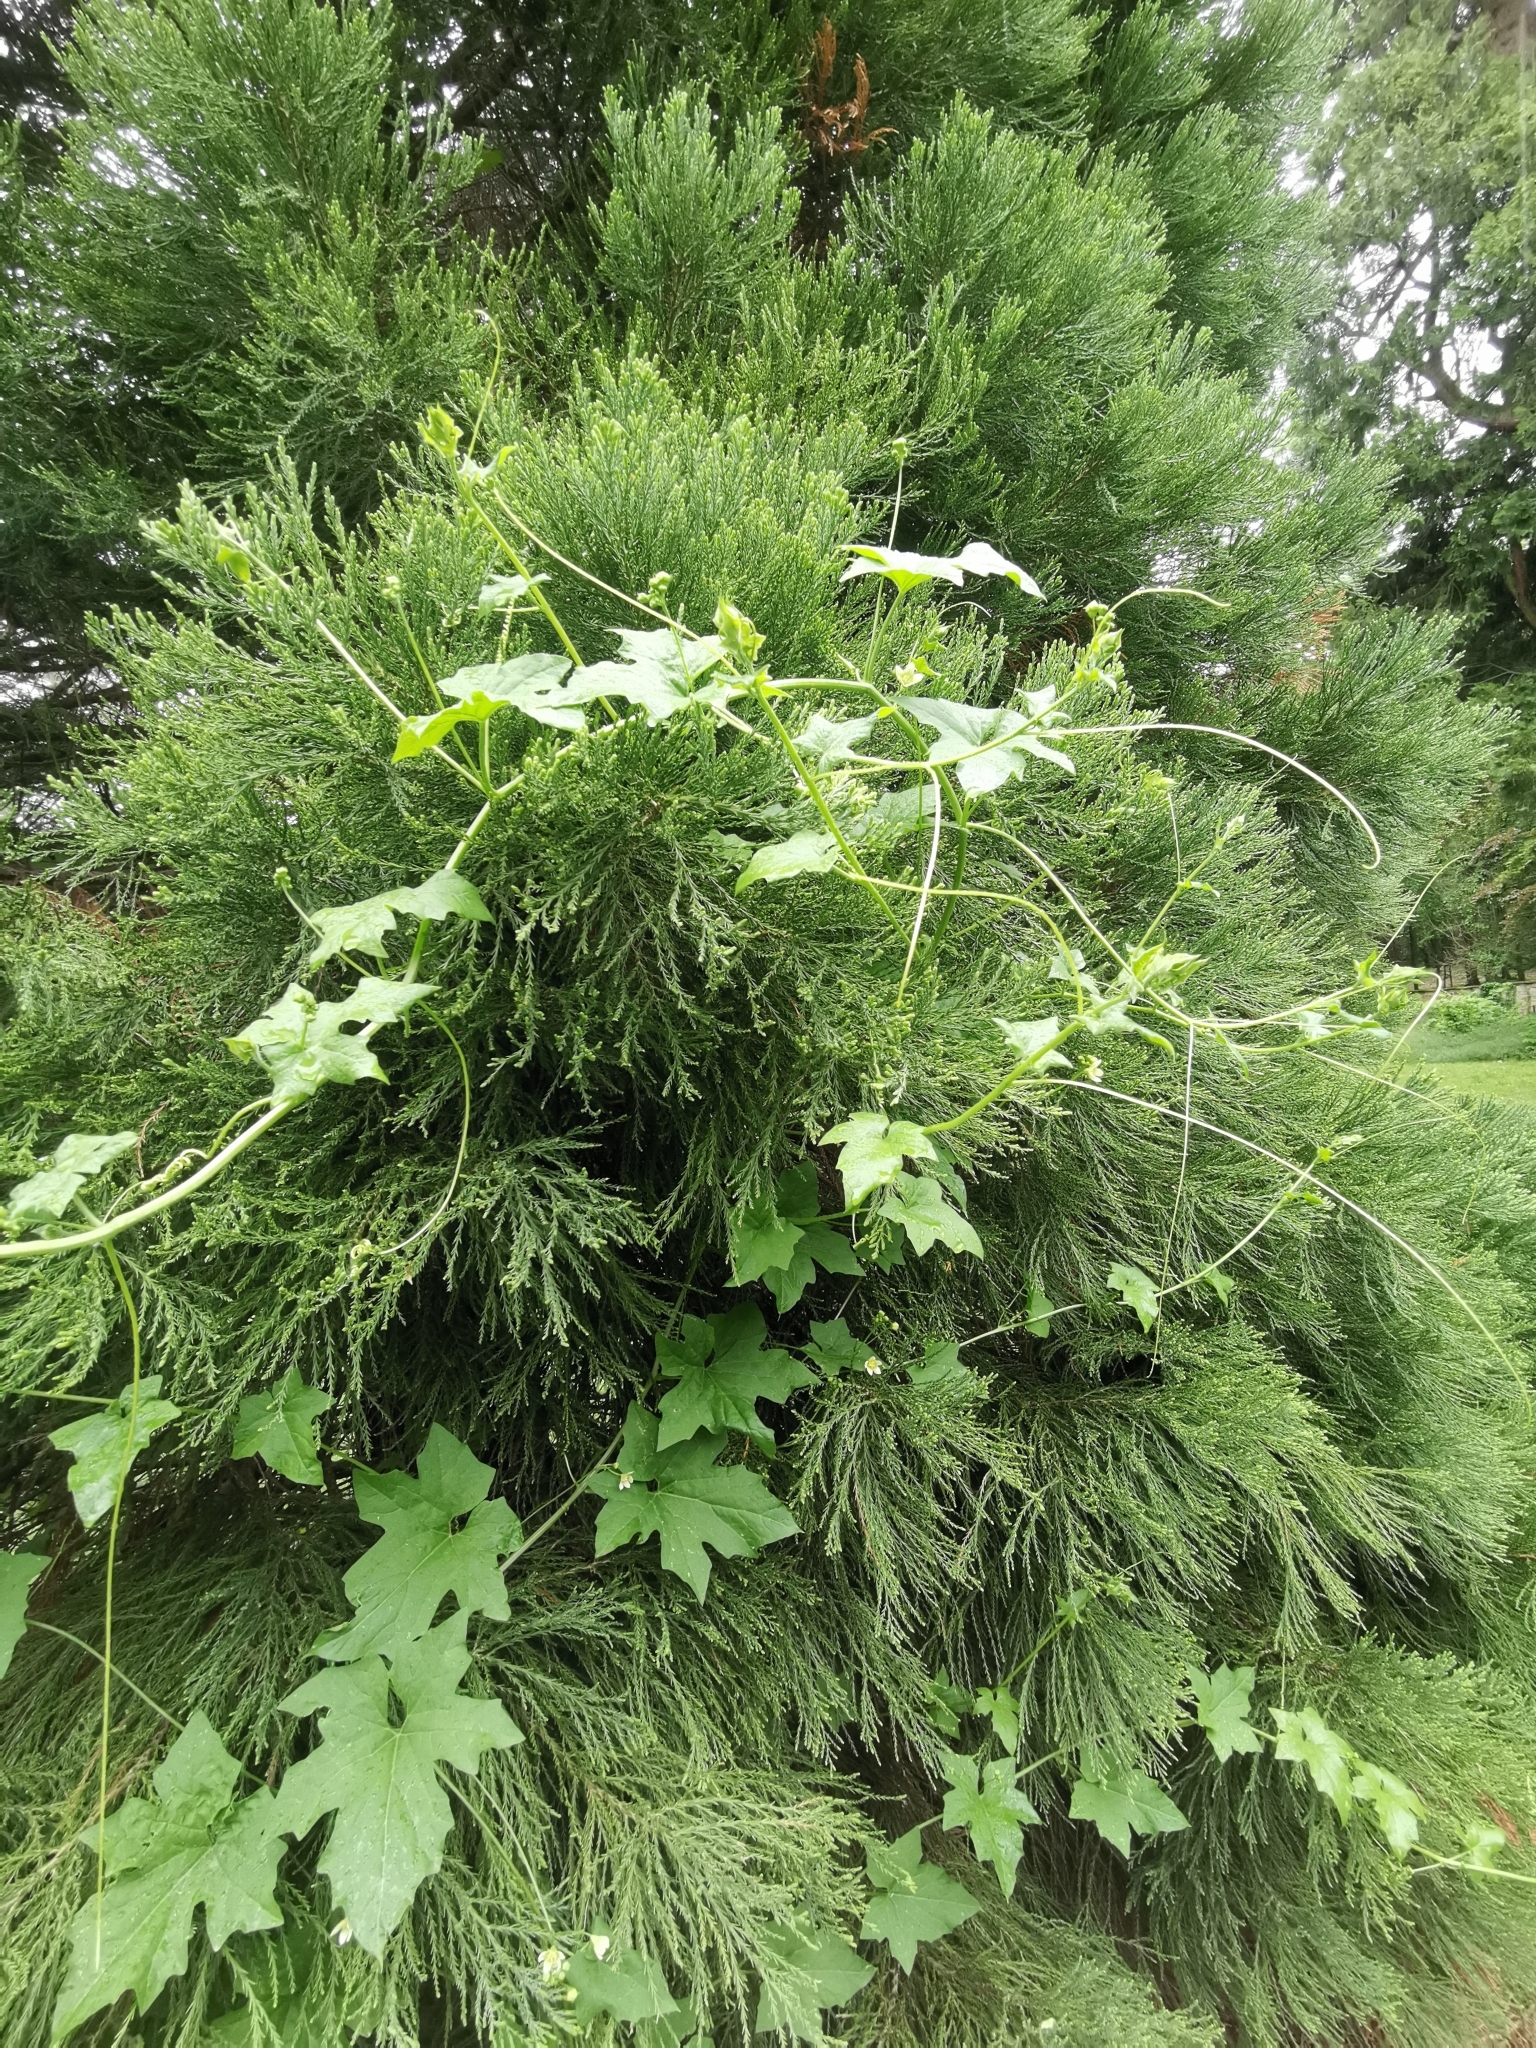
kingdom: Plantae
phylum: Tracheophyta
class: Magnoliopsida
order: Cucurbitales
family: Cucurbitaceae
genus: Bryonia
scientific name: Bryonia dioica
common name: White bryony
